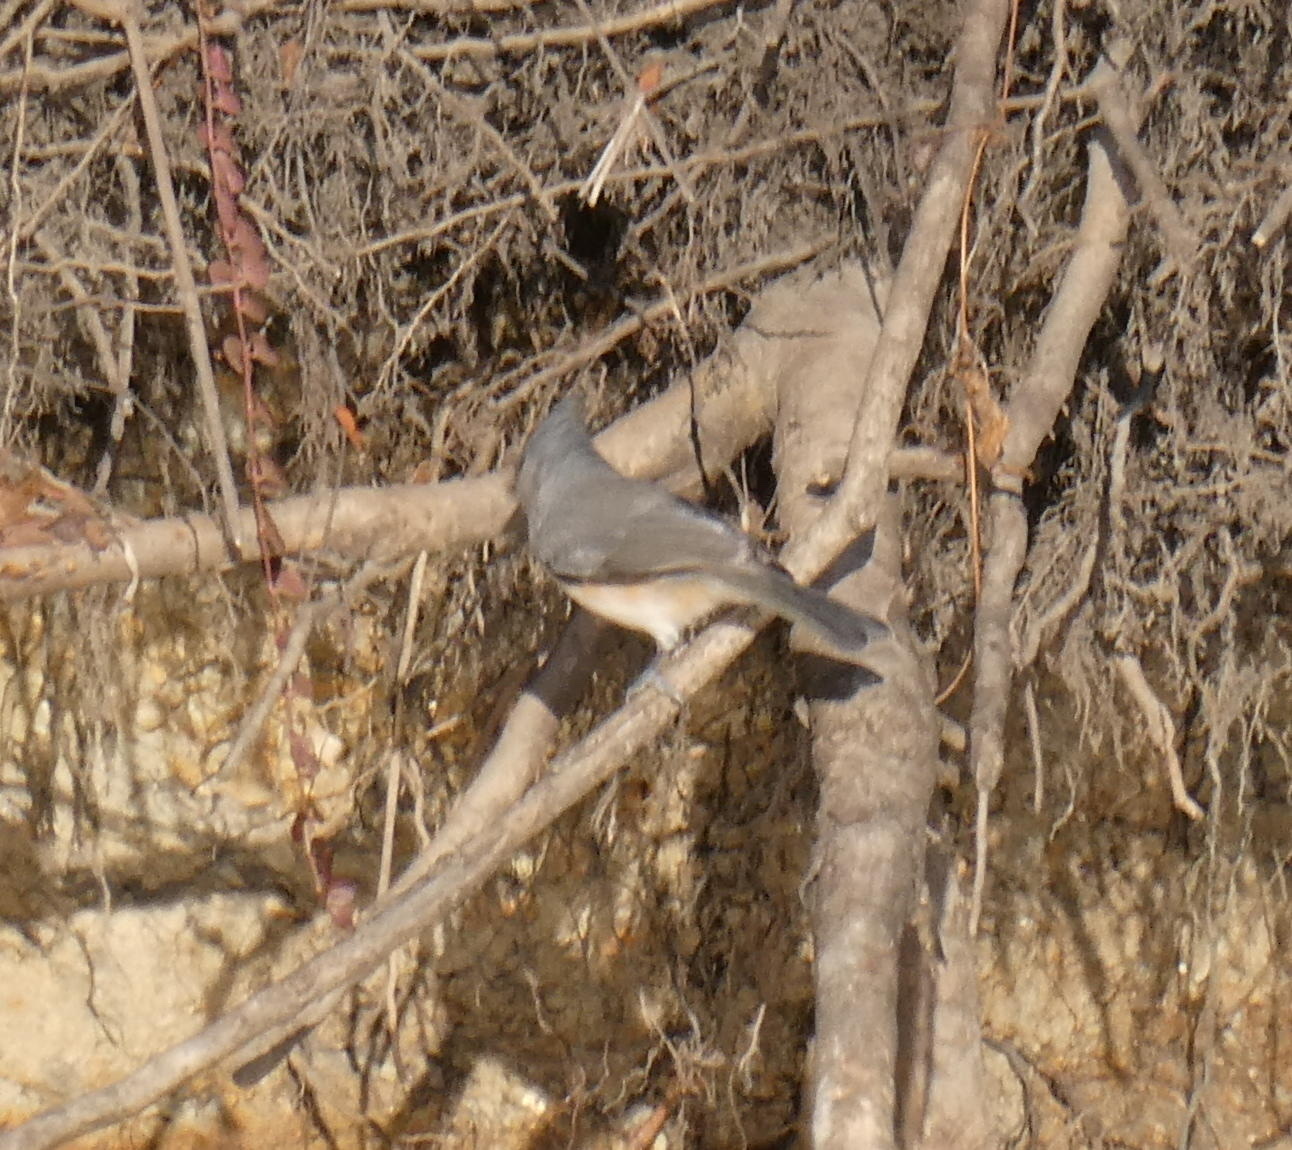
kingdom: Animalia
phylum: Chordata
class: Aves
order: Passeriformes
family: Paridae
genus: Baeolophus
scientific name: Baeolophus bicolor
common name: Tufted titmouse
